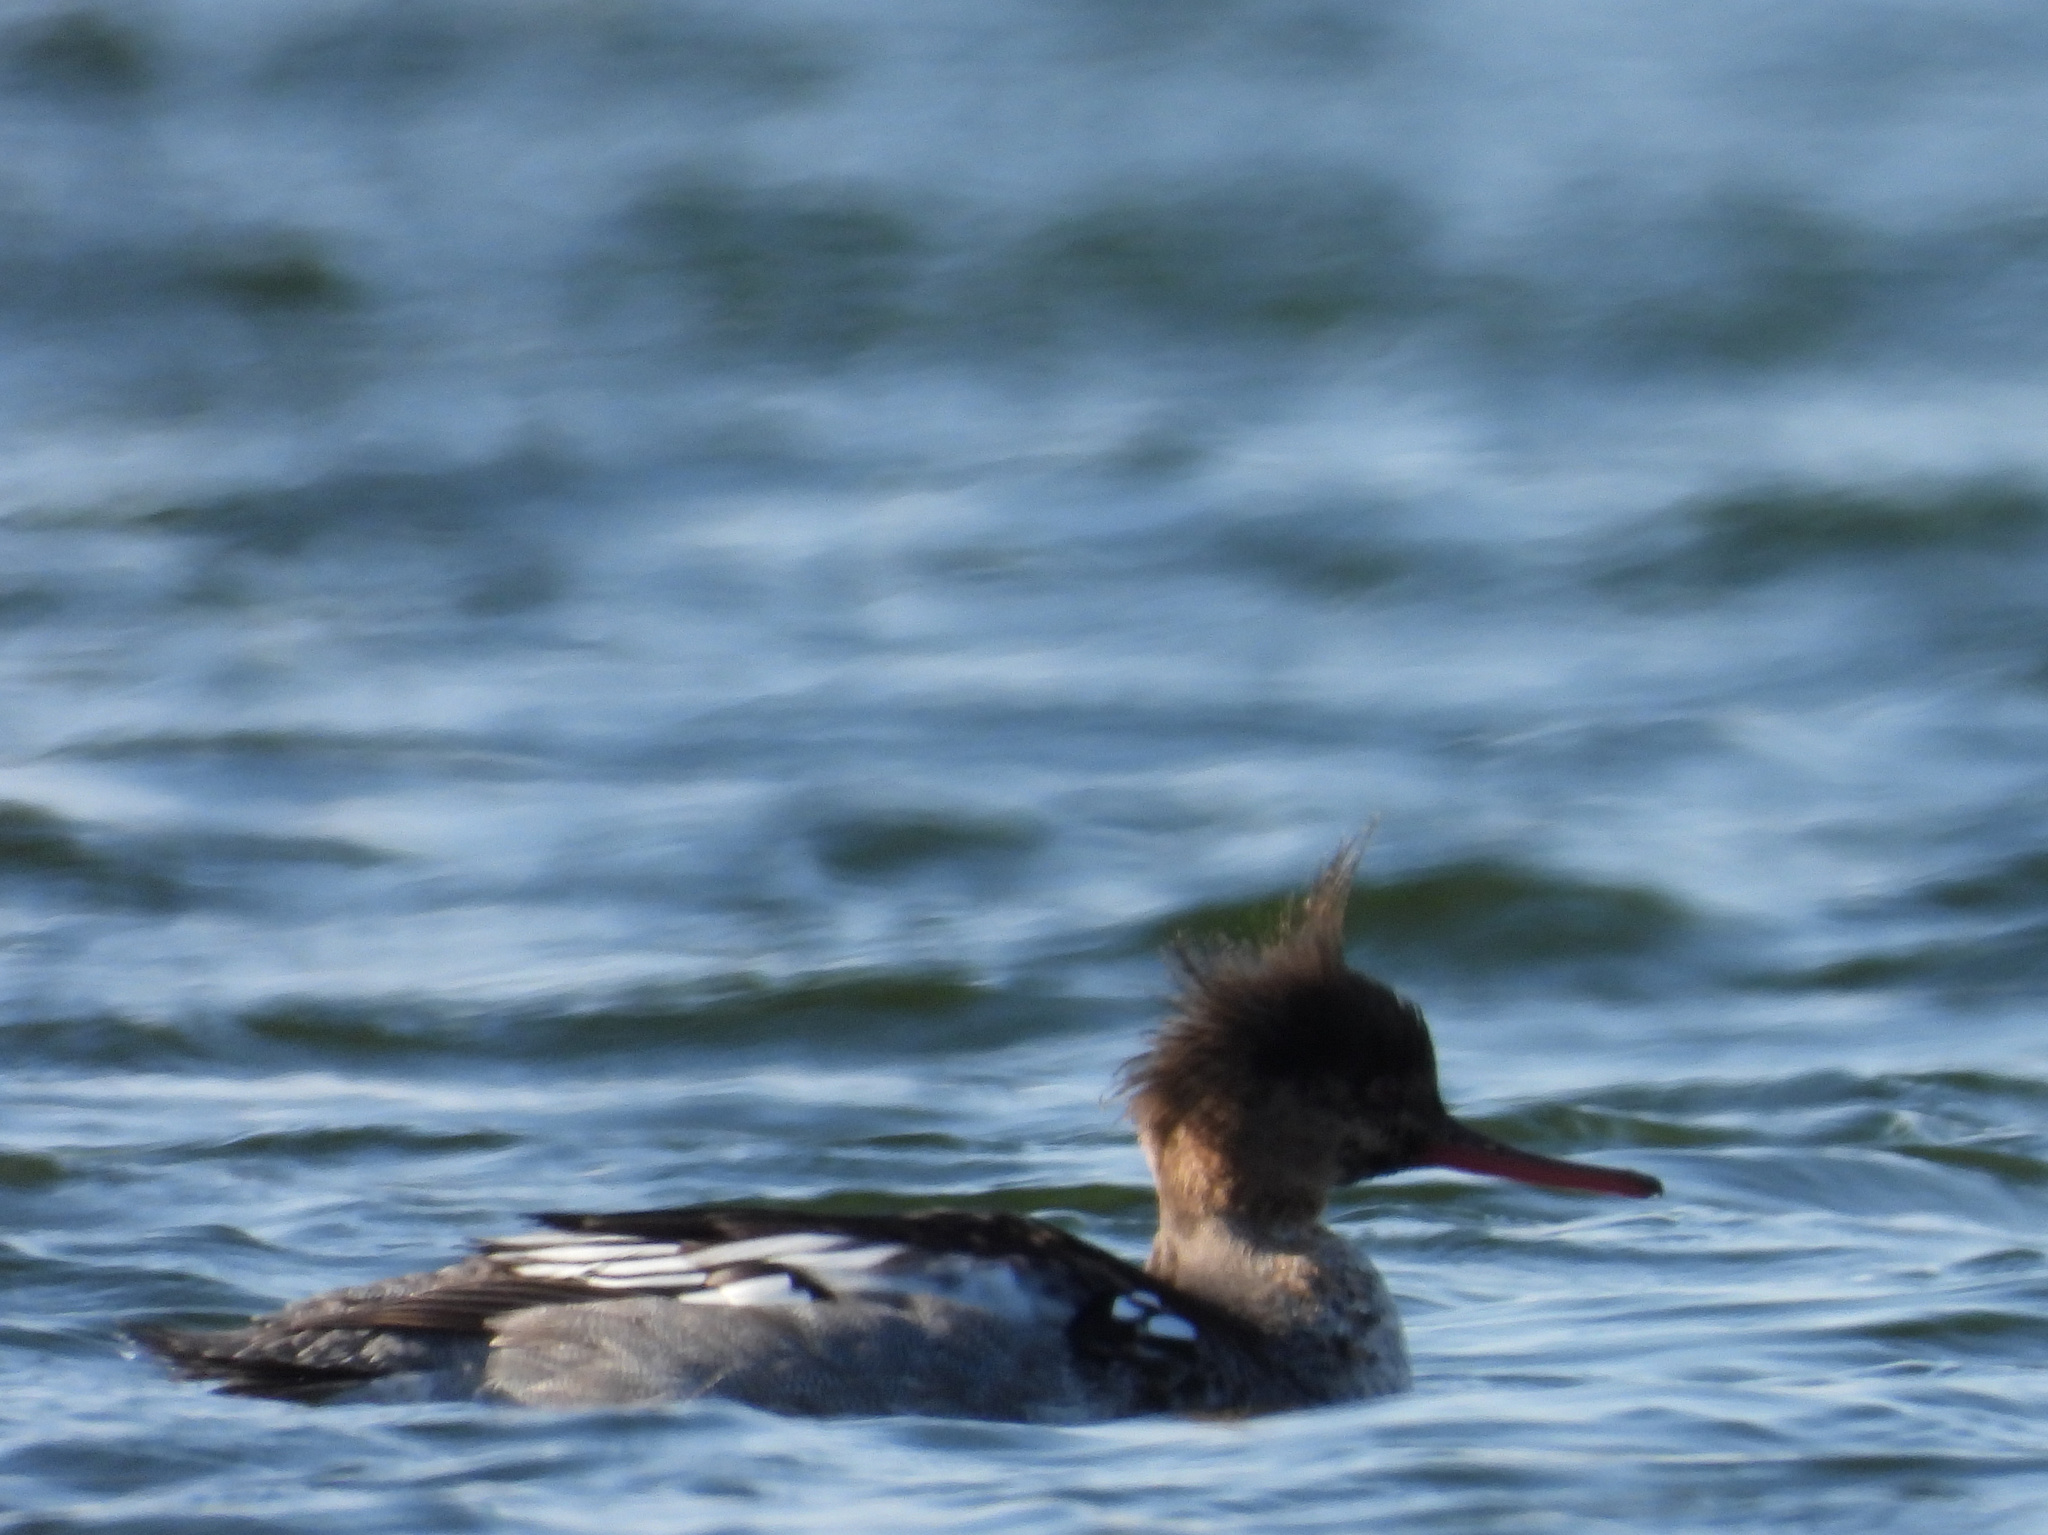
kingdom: Animalia
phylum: Chordata
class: Aves
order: Anseriformes
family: Anatidae
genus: Mergus
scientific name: Mergus serrator
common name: Red-breasted merganser
